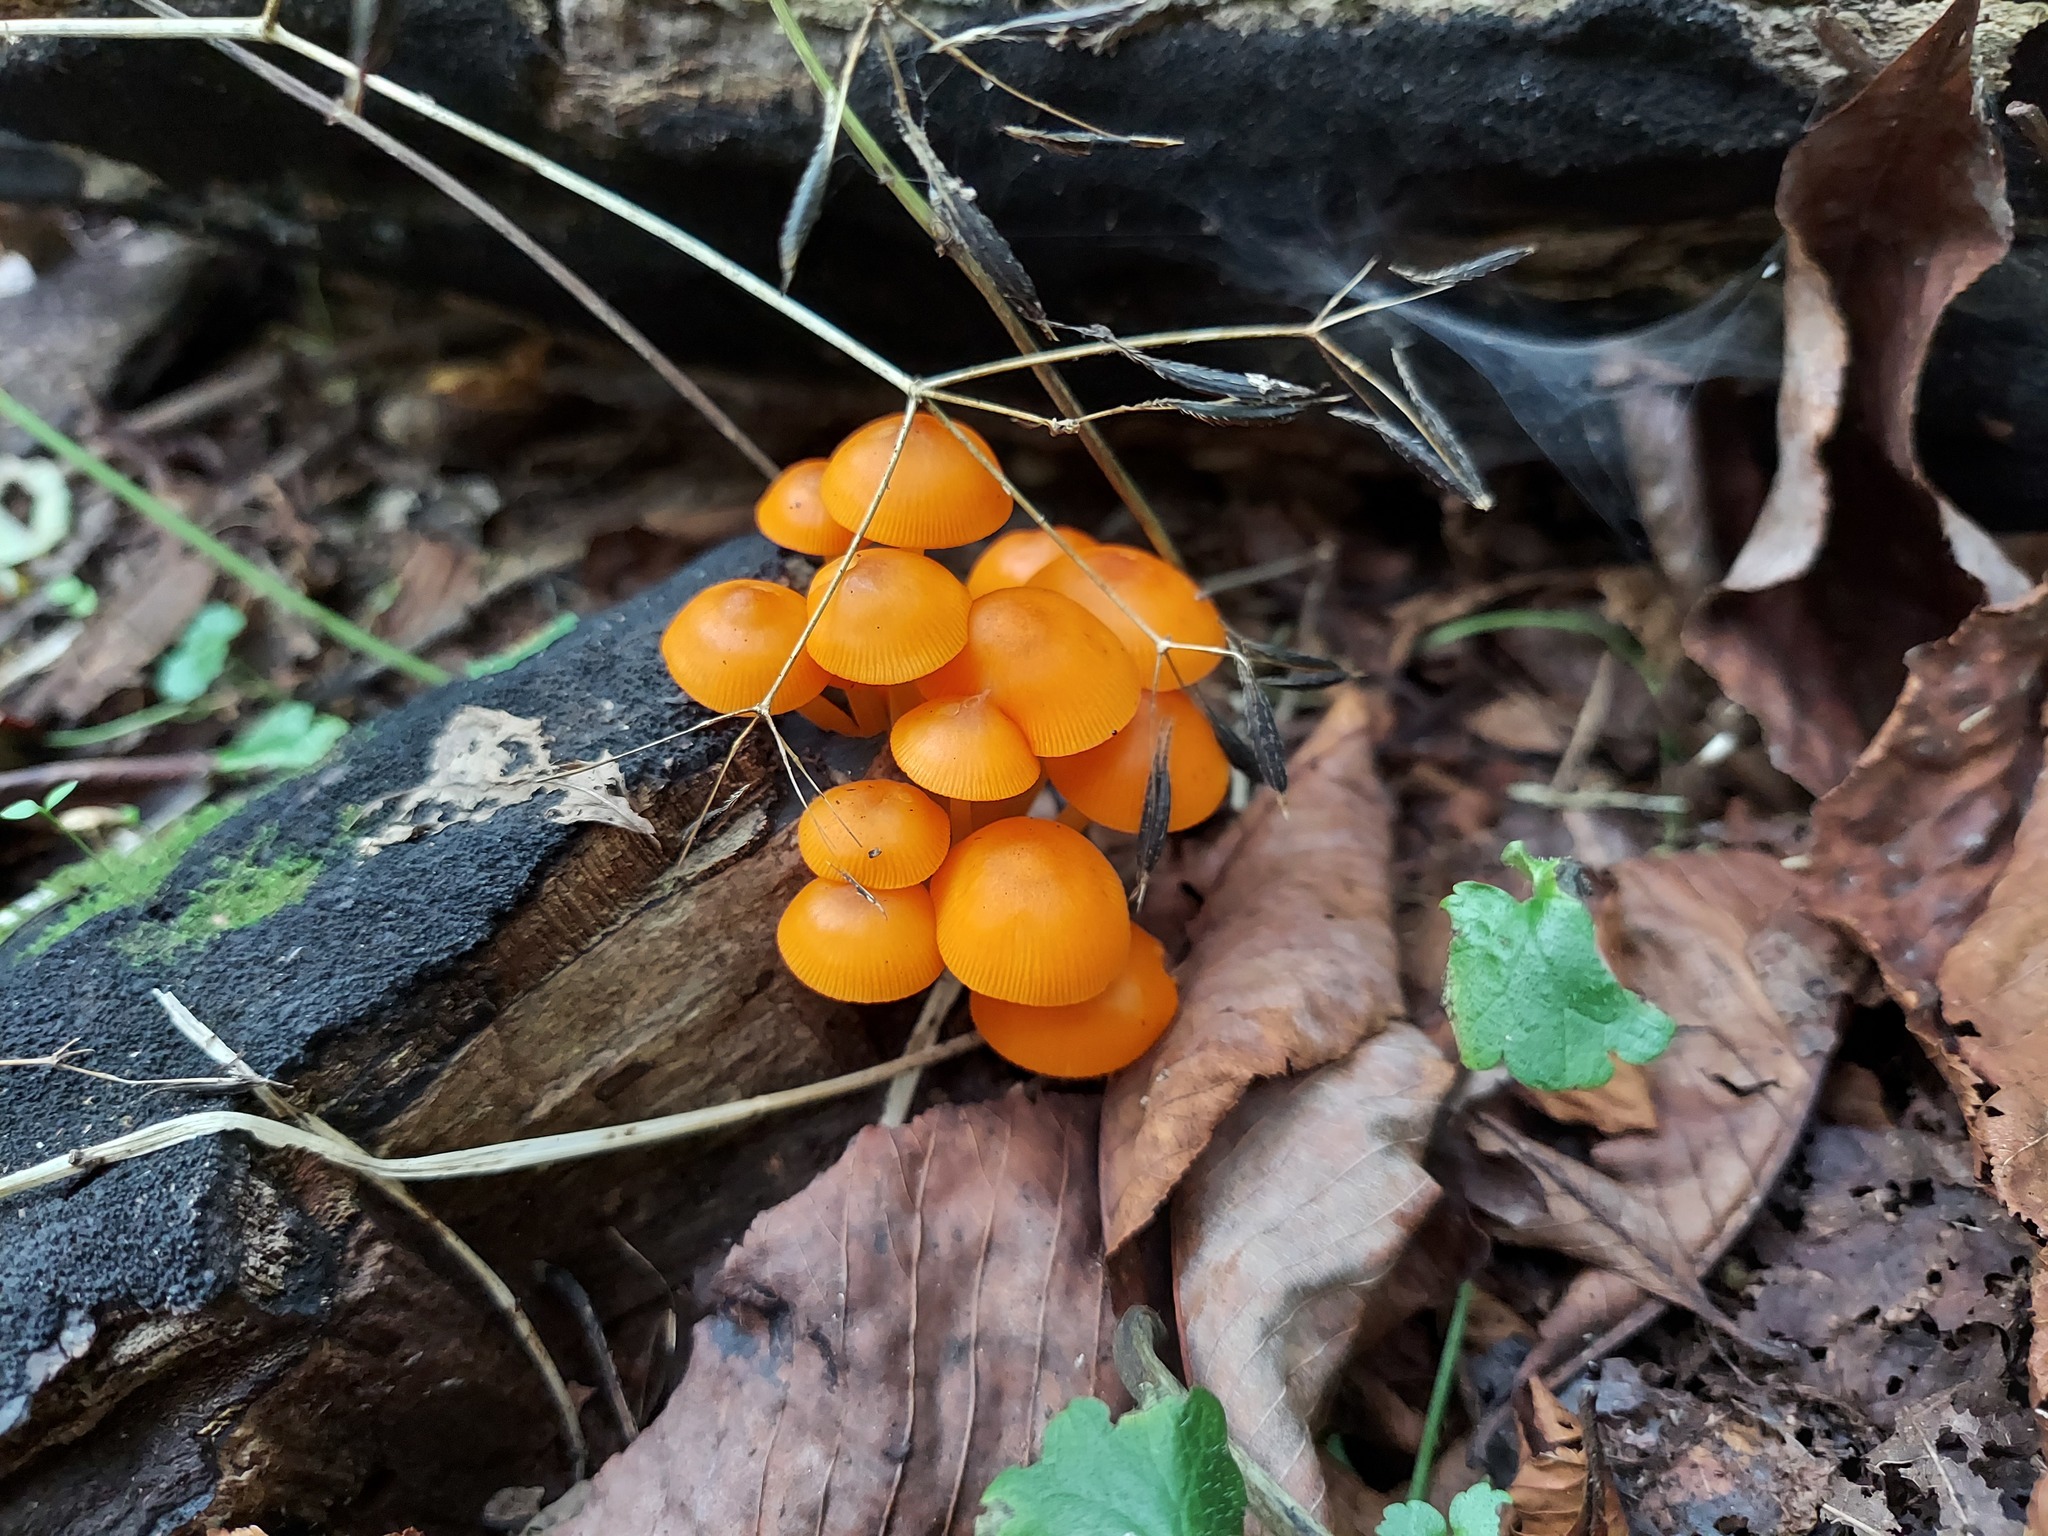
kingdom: Fungi
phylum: Basidiomycota
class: Agaricomycetes
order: Agaricales
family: Mycenaceae
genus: Mycena
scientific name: Mycena leaiana
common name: Orange mycena
